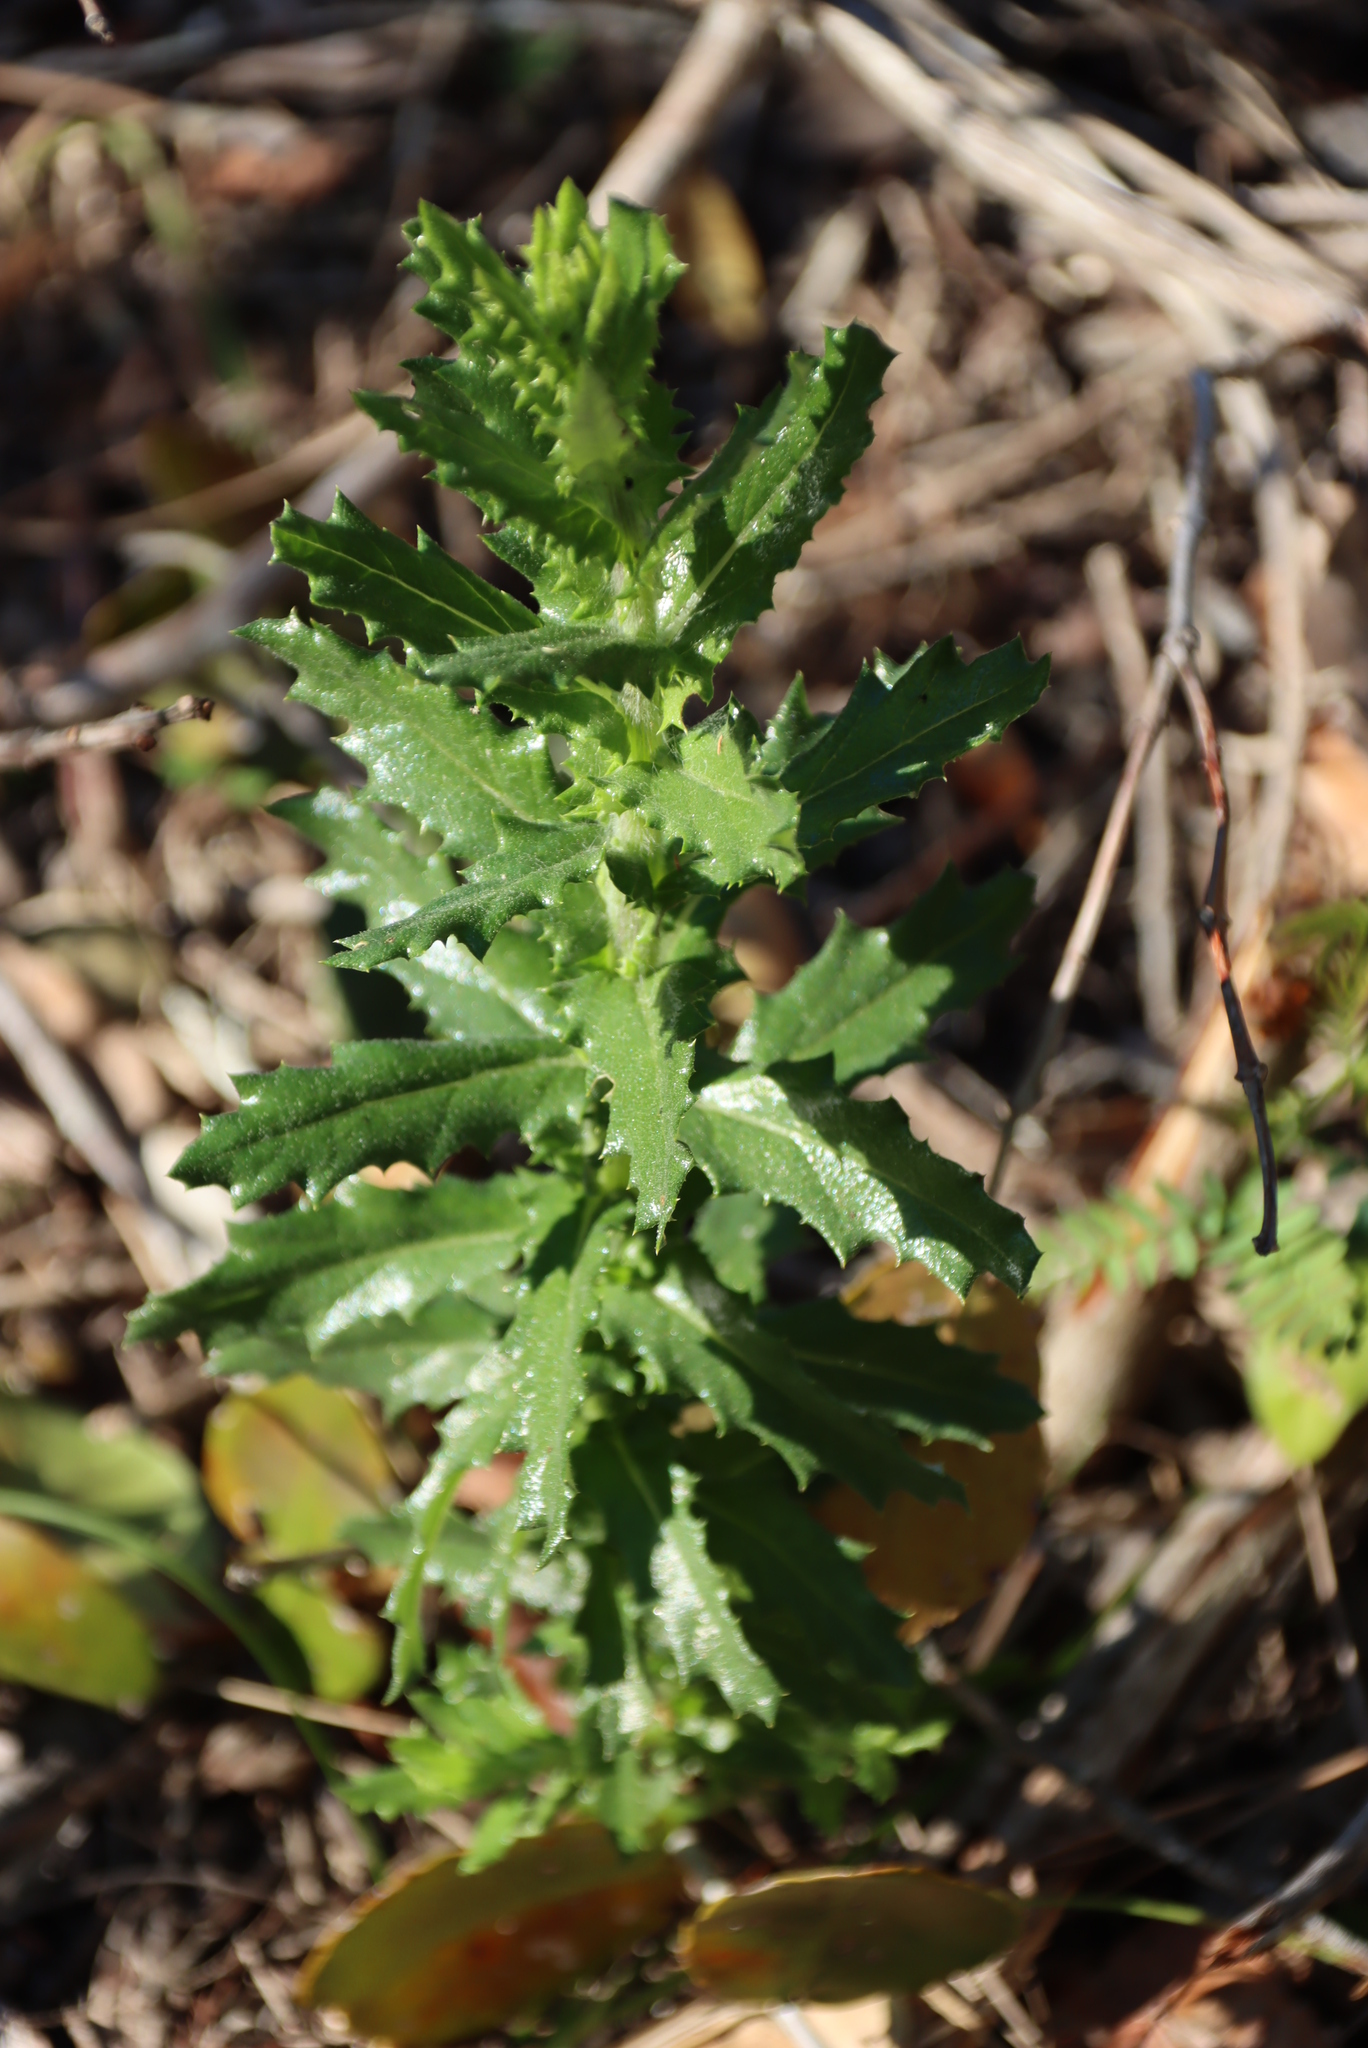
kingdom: Plantae
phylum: Tracheophyta
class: Magnoliopsida
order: Asterales
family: Asteraceae
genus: Senecio
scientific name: Senecio ilicifolius
